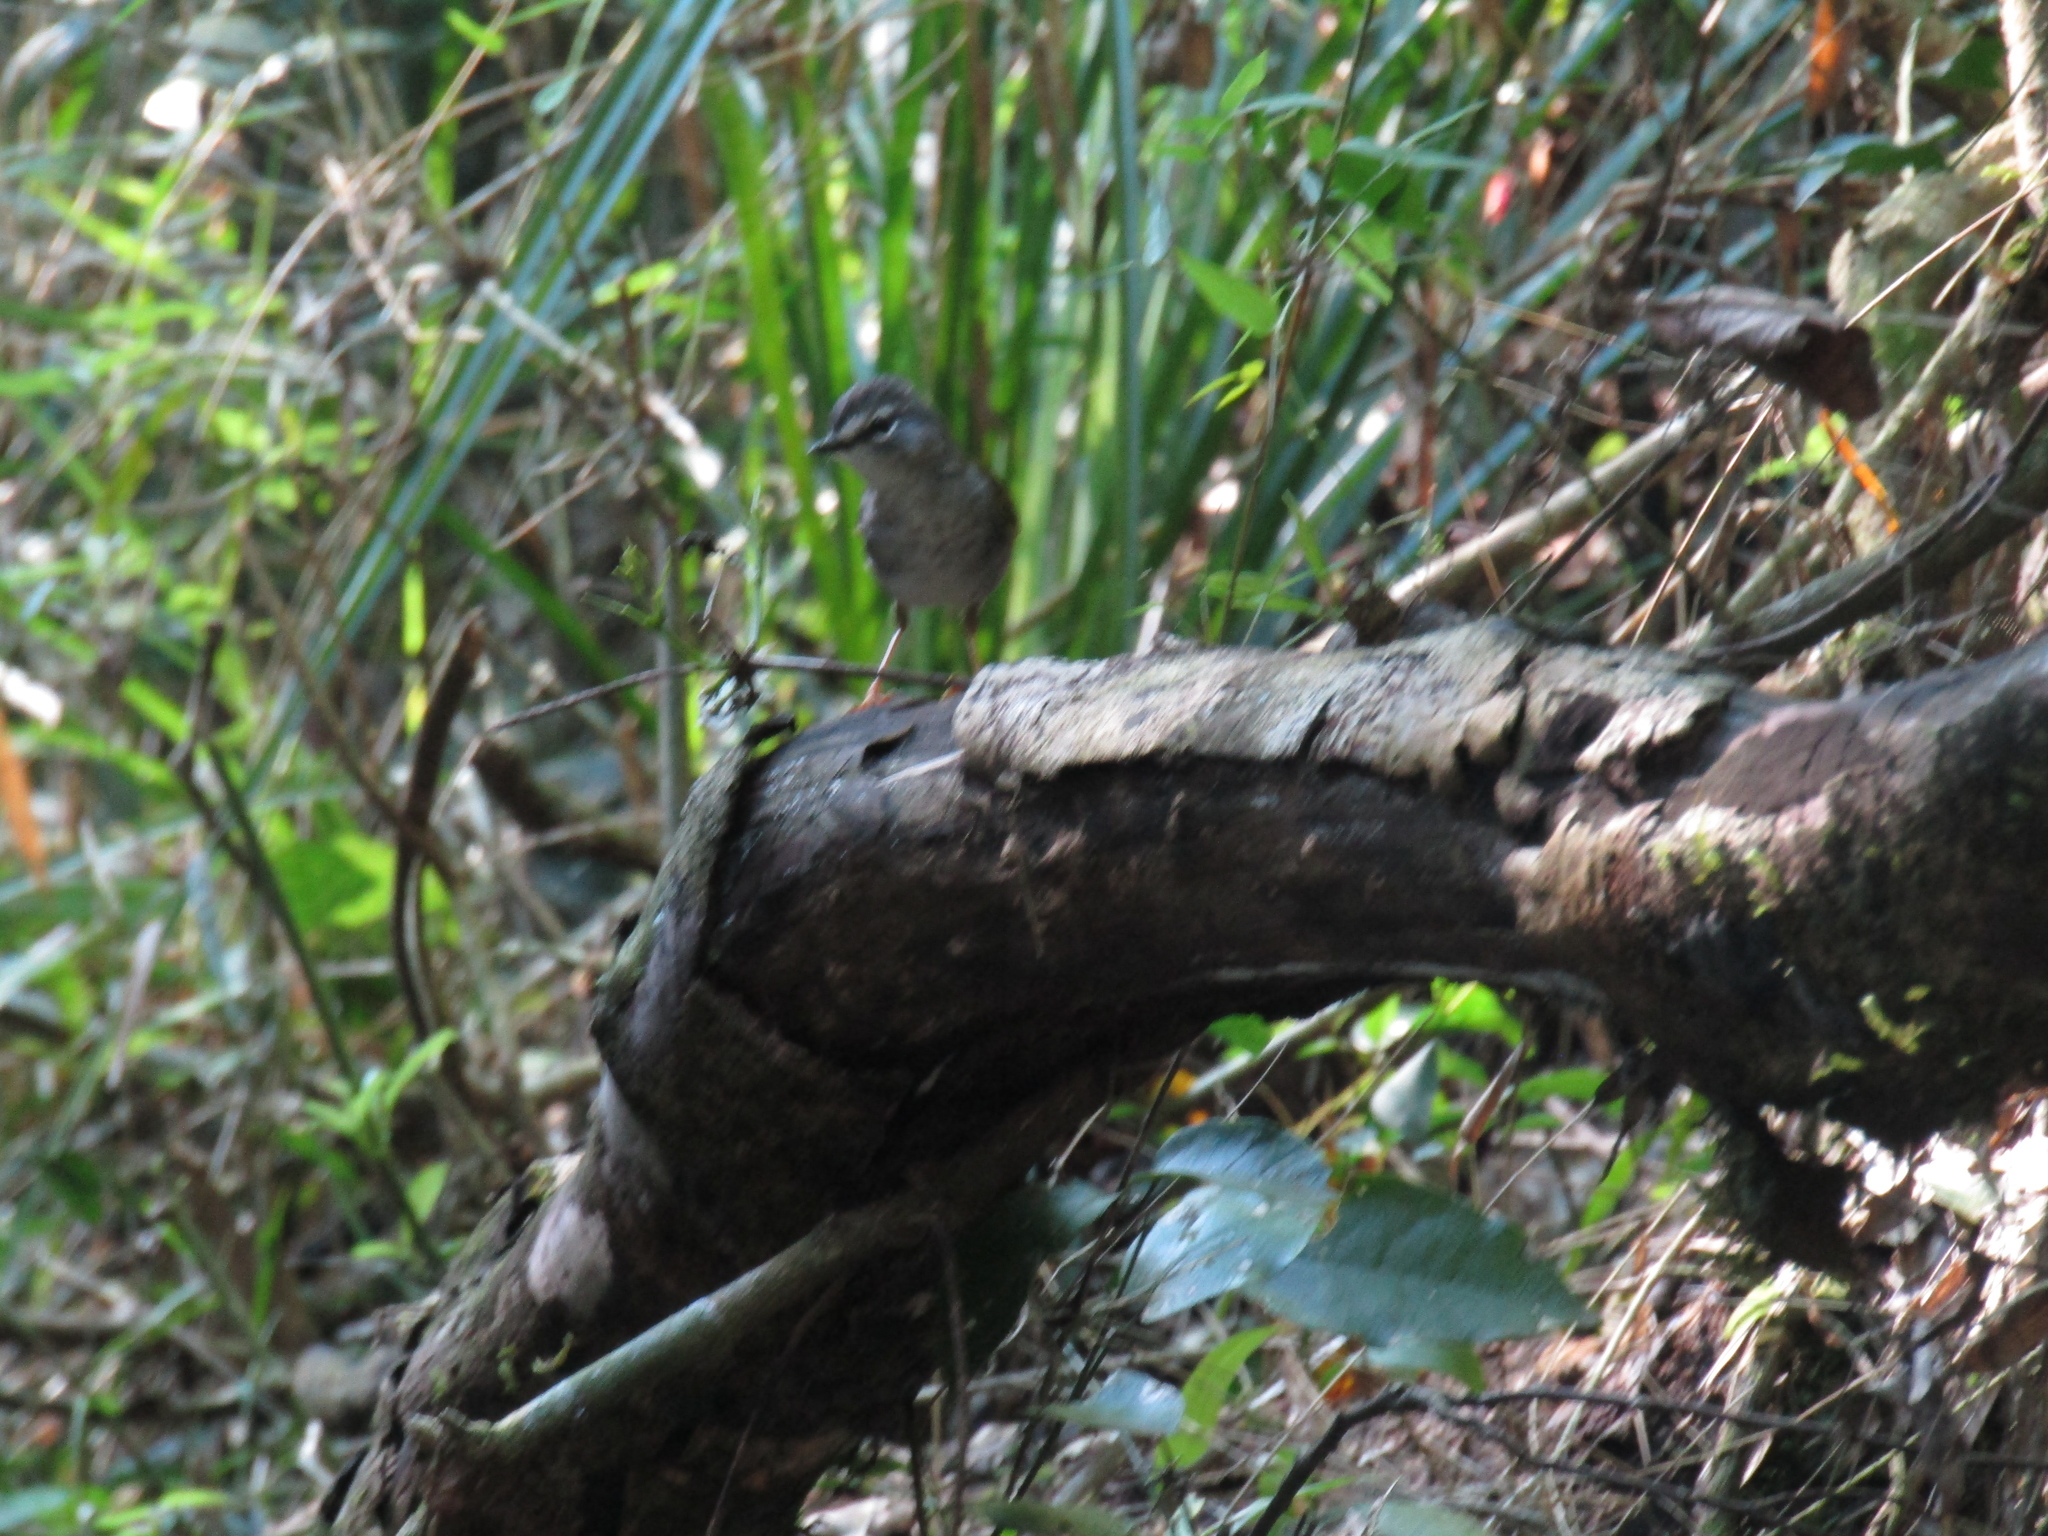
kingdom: Animalia
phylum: Chordata
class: Aves
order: Passeriformes
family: Parulidae
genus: Myiothlypis
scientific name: Myiothlypis leucoblephara
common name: White-rimmed warbler
